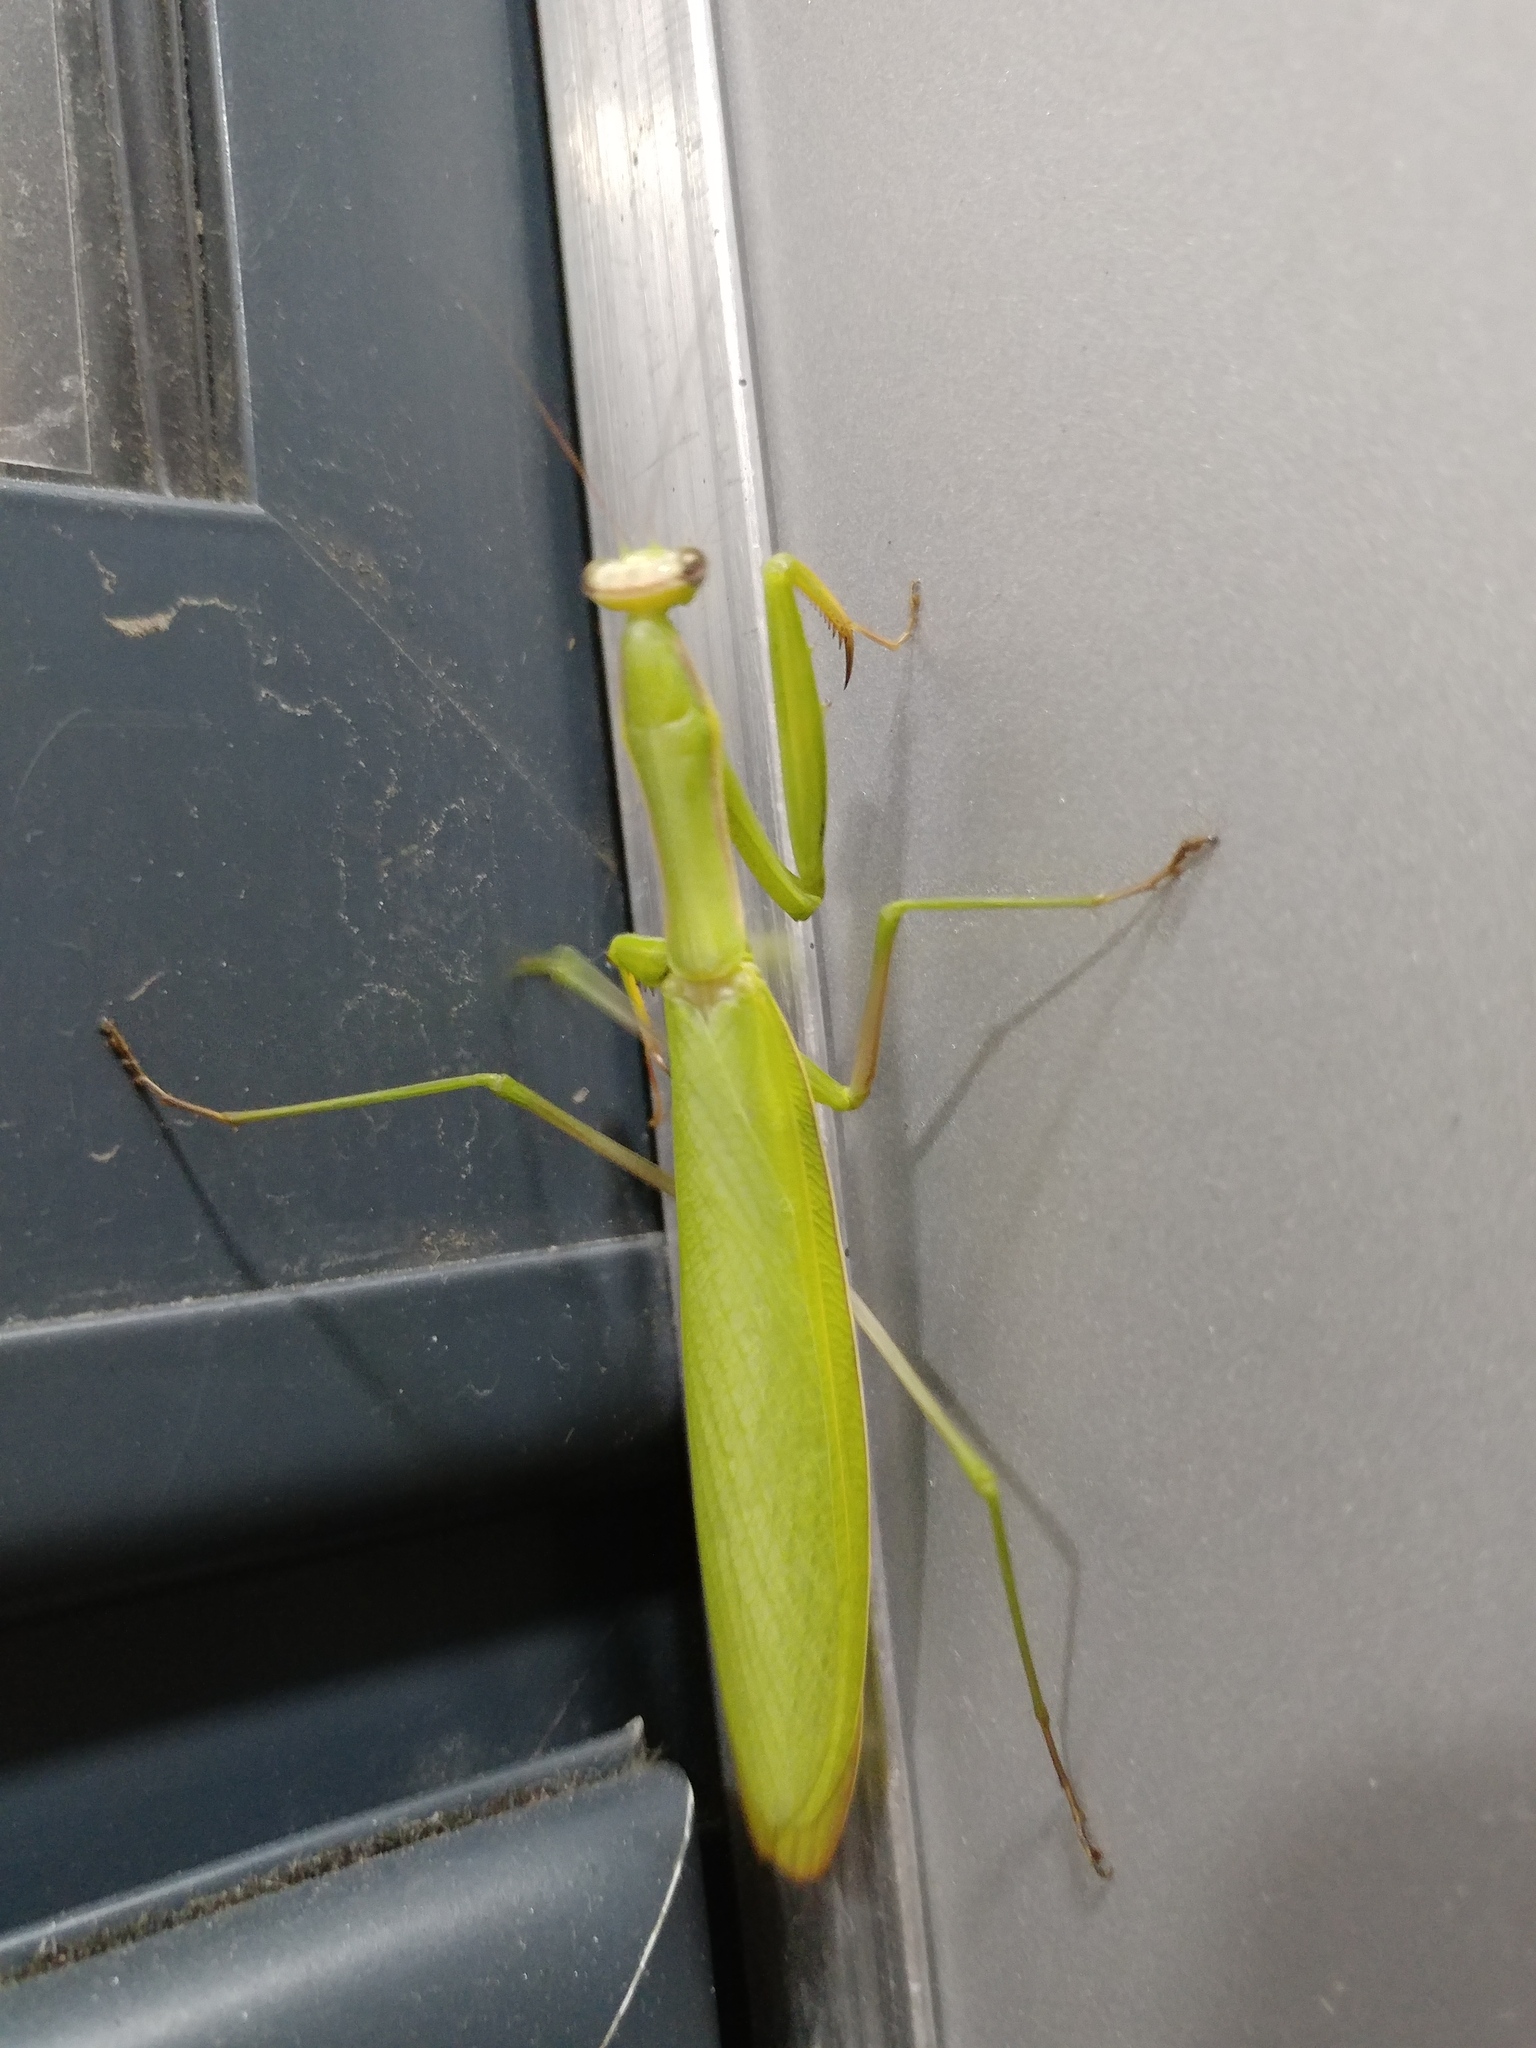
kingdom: Animalia
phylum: Arthropoda
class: Insecta
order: Mantodea
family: Mantidae
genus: Mantis
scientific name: Mantis religiosa
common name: Praying mantis
